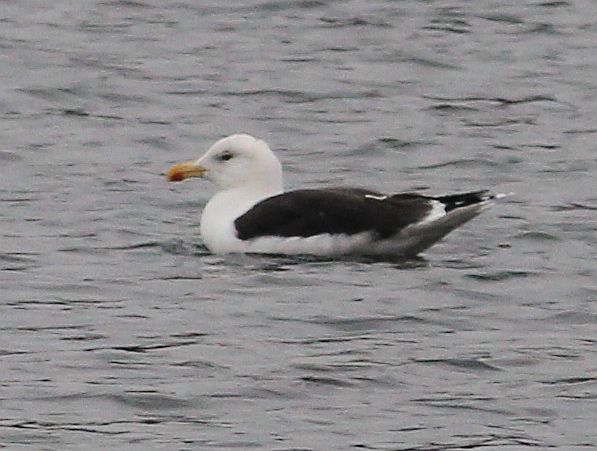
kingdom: Animalia
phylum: Chordata
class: Aves
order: Charadriiformes
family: Laridae
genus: Larus
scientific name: Larus marinus
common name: Great black-backed gull
